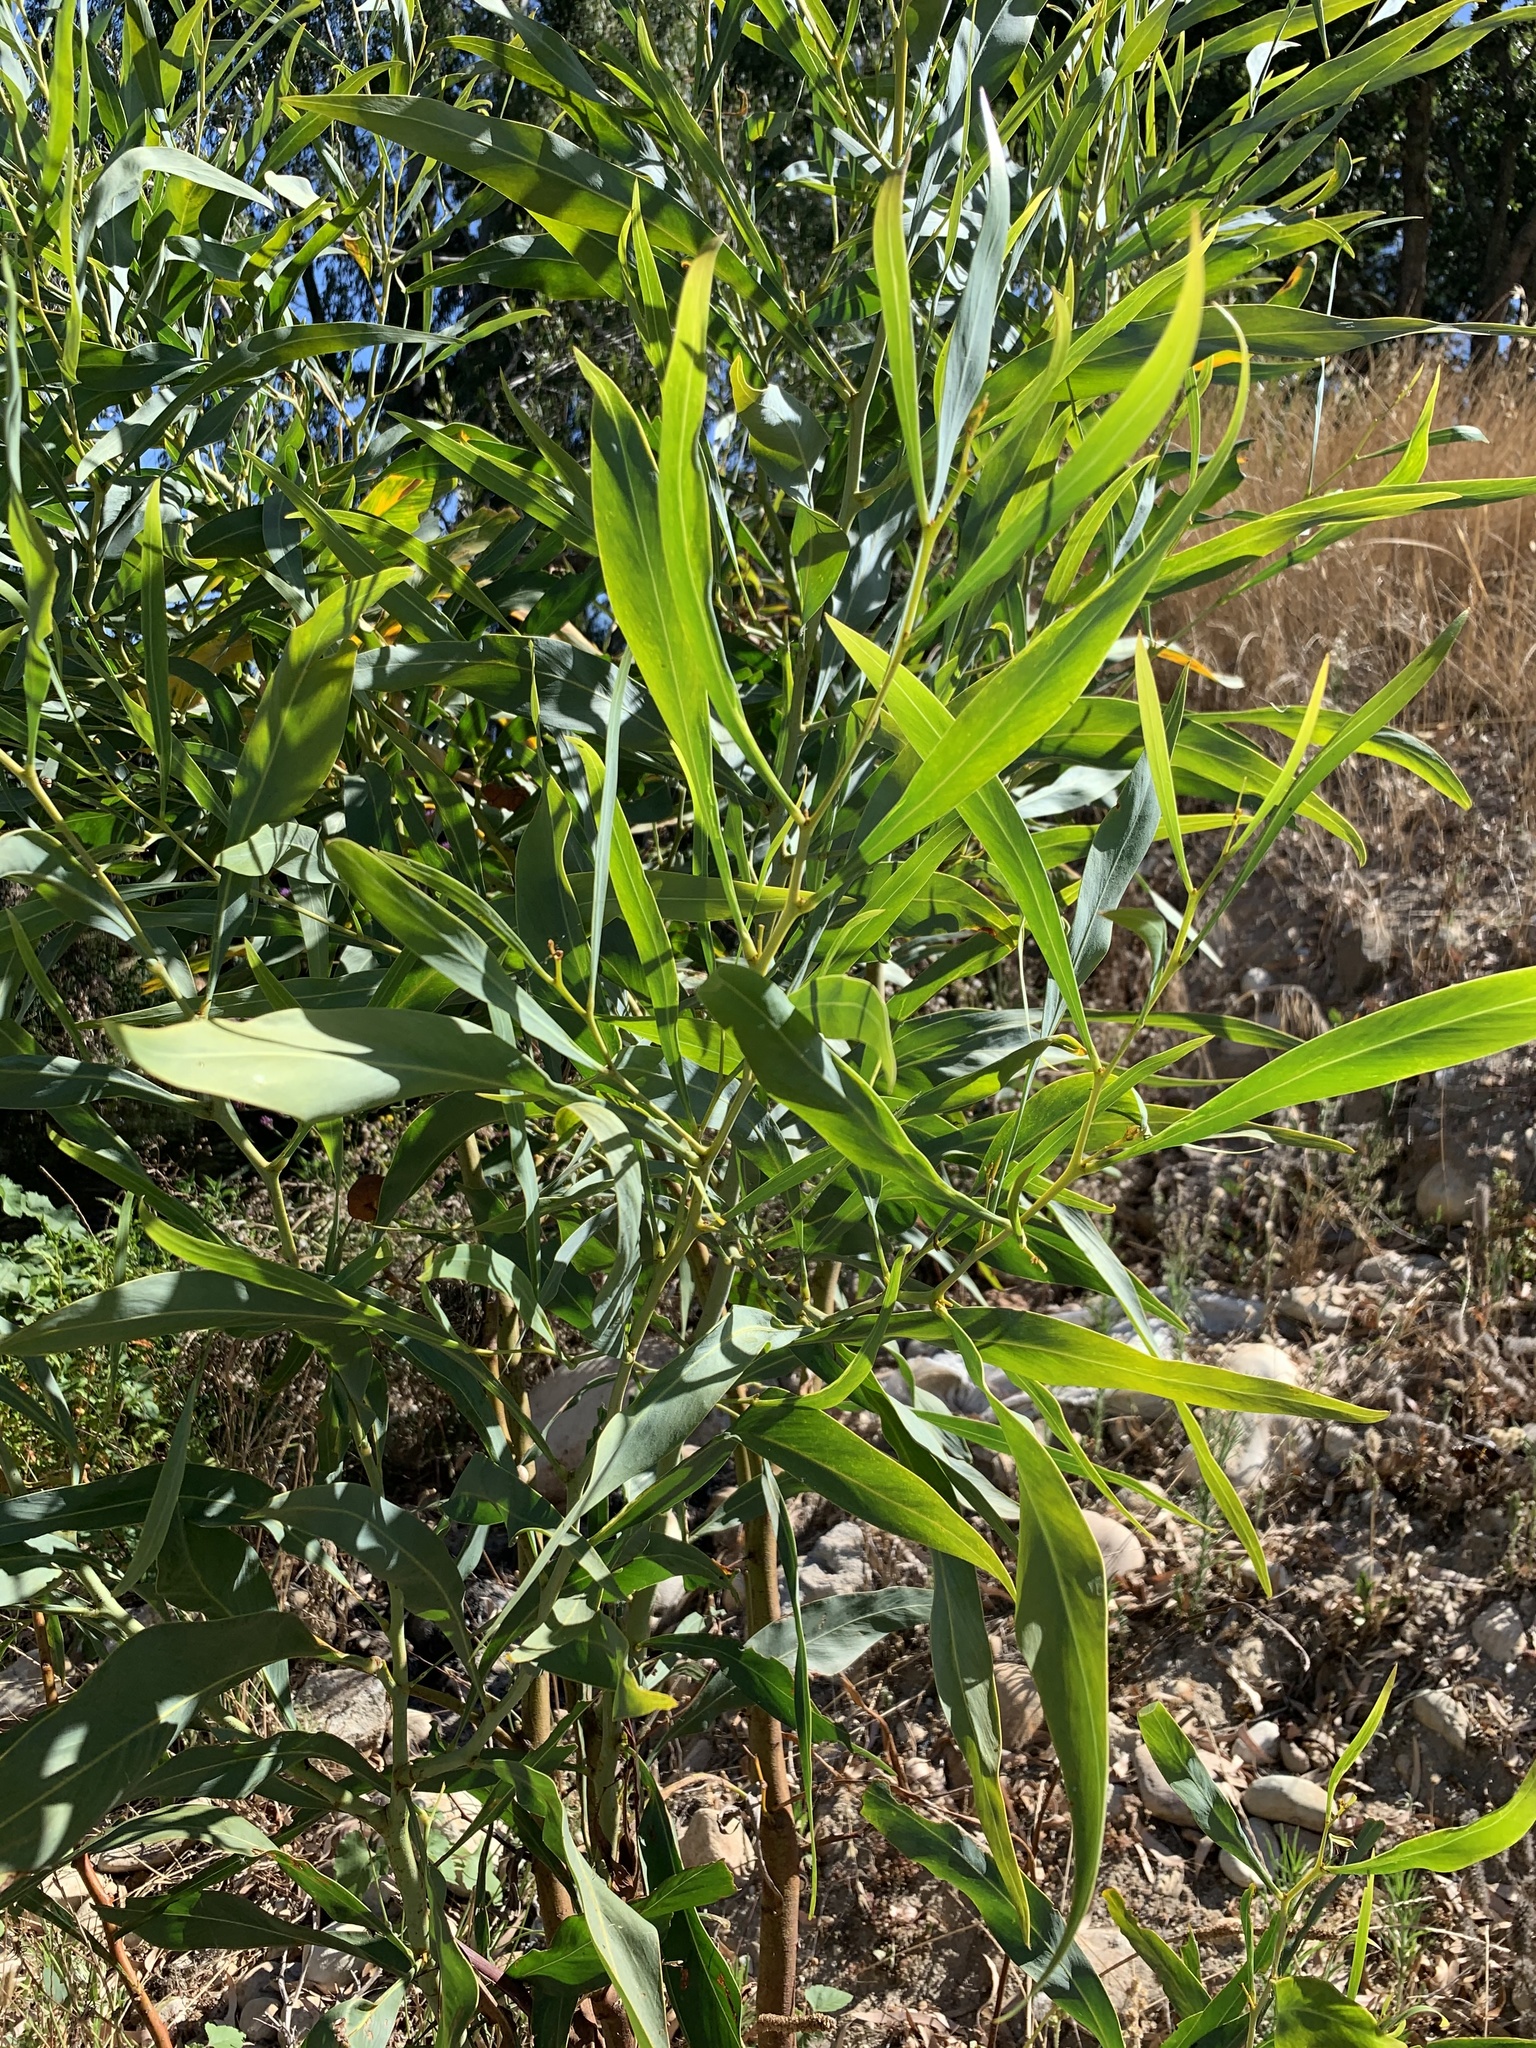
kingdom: Plantae
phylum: Tracheophyta
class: Magnoliopsida
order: Fabales
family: Fabaceae
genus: Acacia
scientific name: Acacia saligna
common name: Orange wattle
